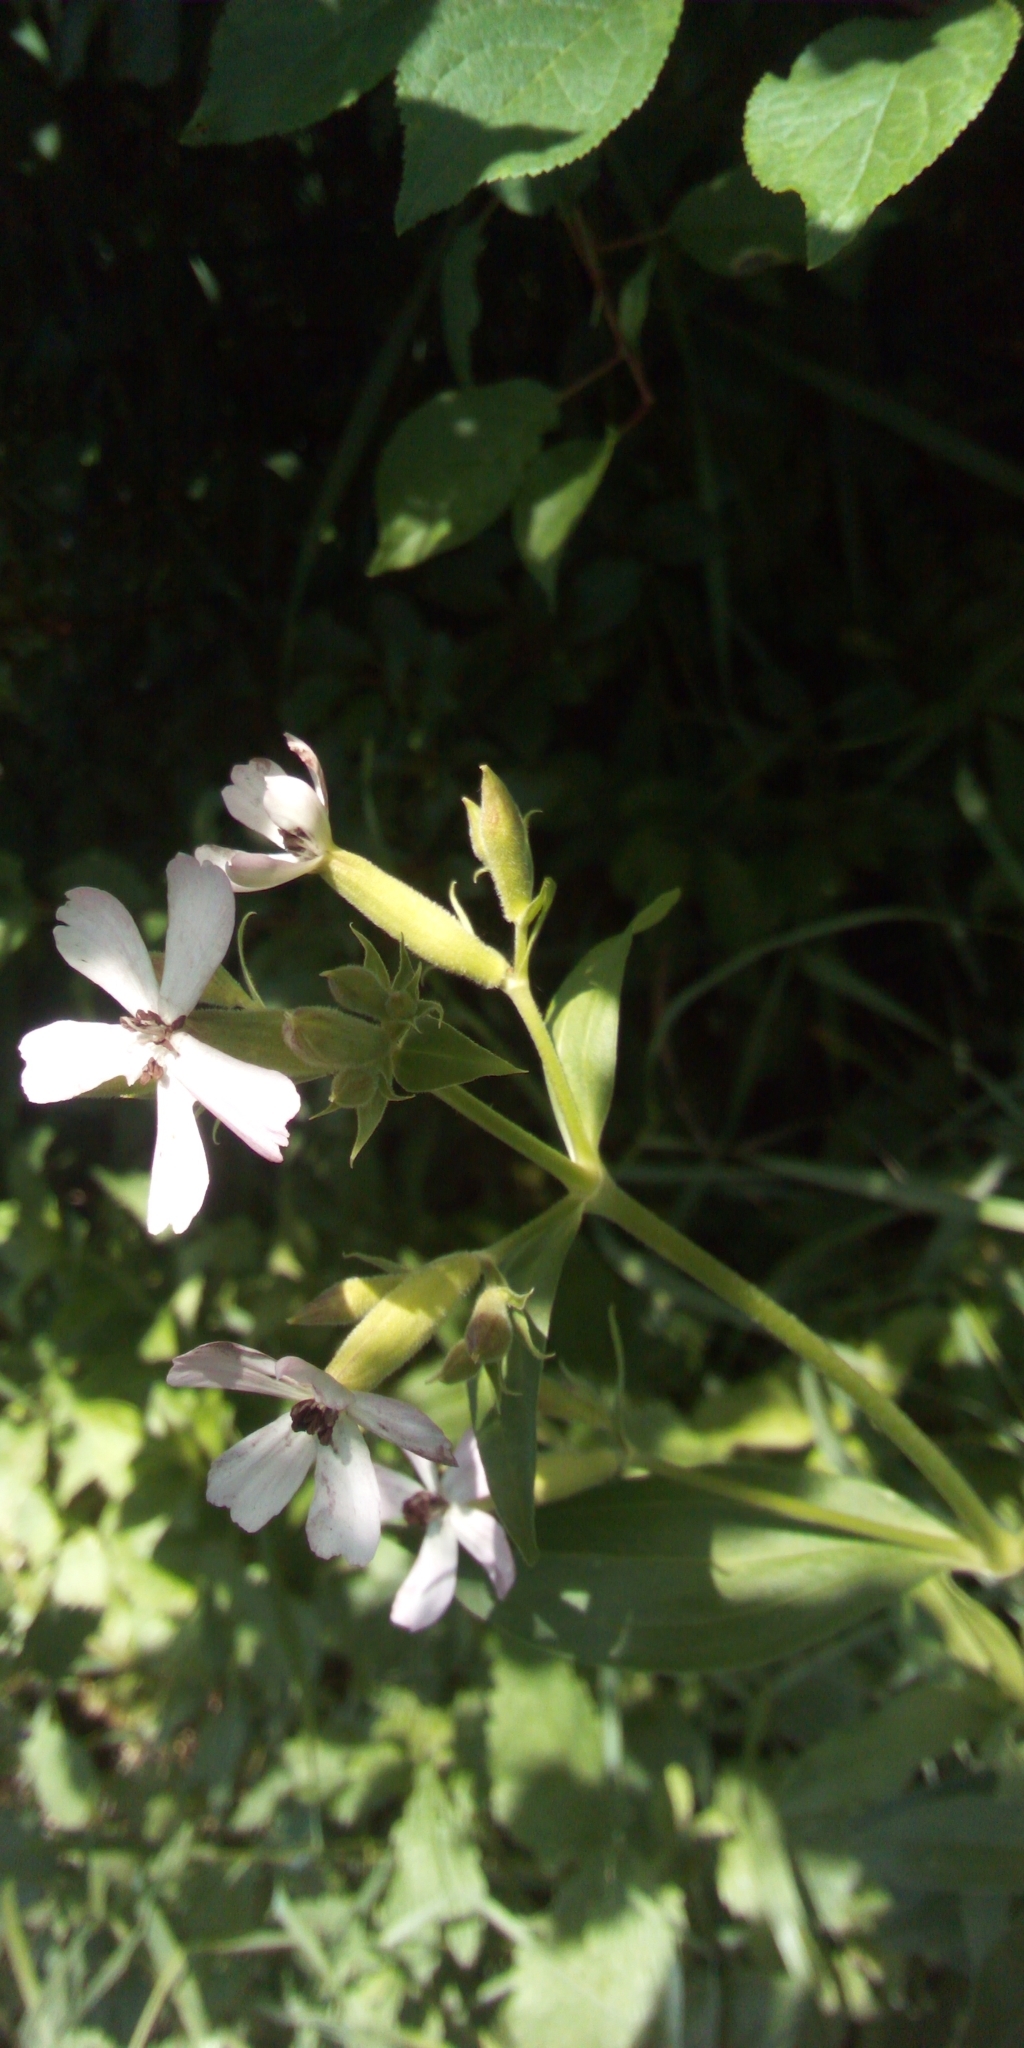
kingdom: Plantae
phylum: Tracheophyta
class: Magnoliopsida
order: Caryophyllales
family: Caryophyllaceae
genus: Saponaria
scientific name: Saponaria officinalis
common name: Soapwort
